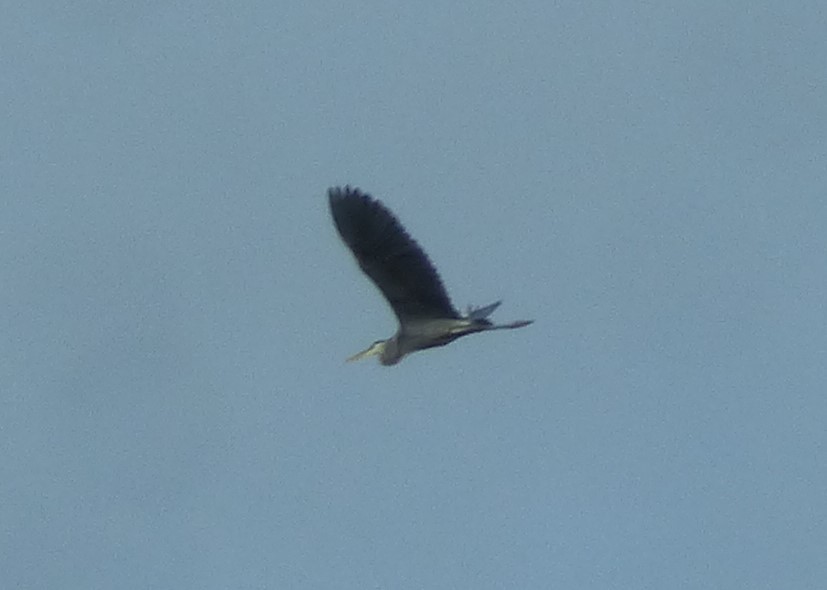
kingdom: Animalia
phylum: Chordata
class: Aves
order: Pelecaniformes
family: Ardeidae
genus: Ardea
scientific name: Ardea herodias
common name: Great blue heron
